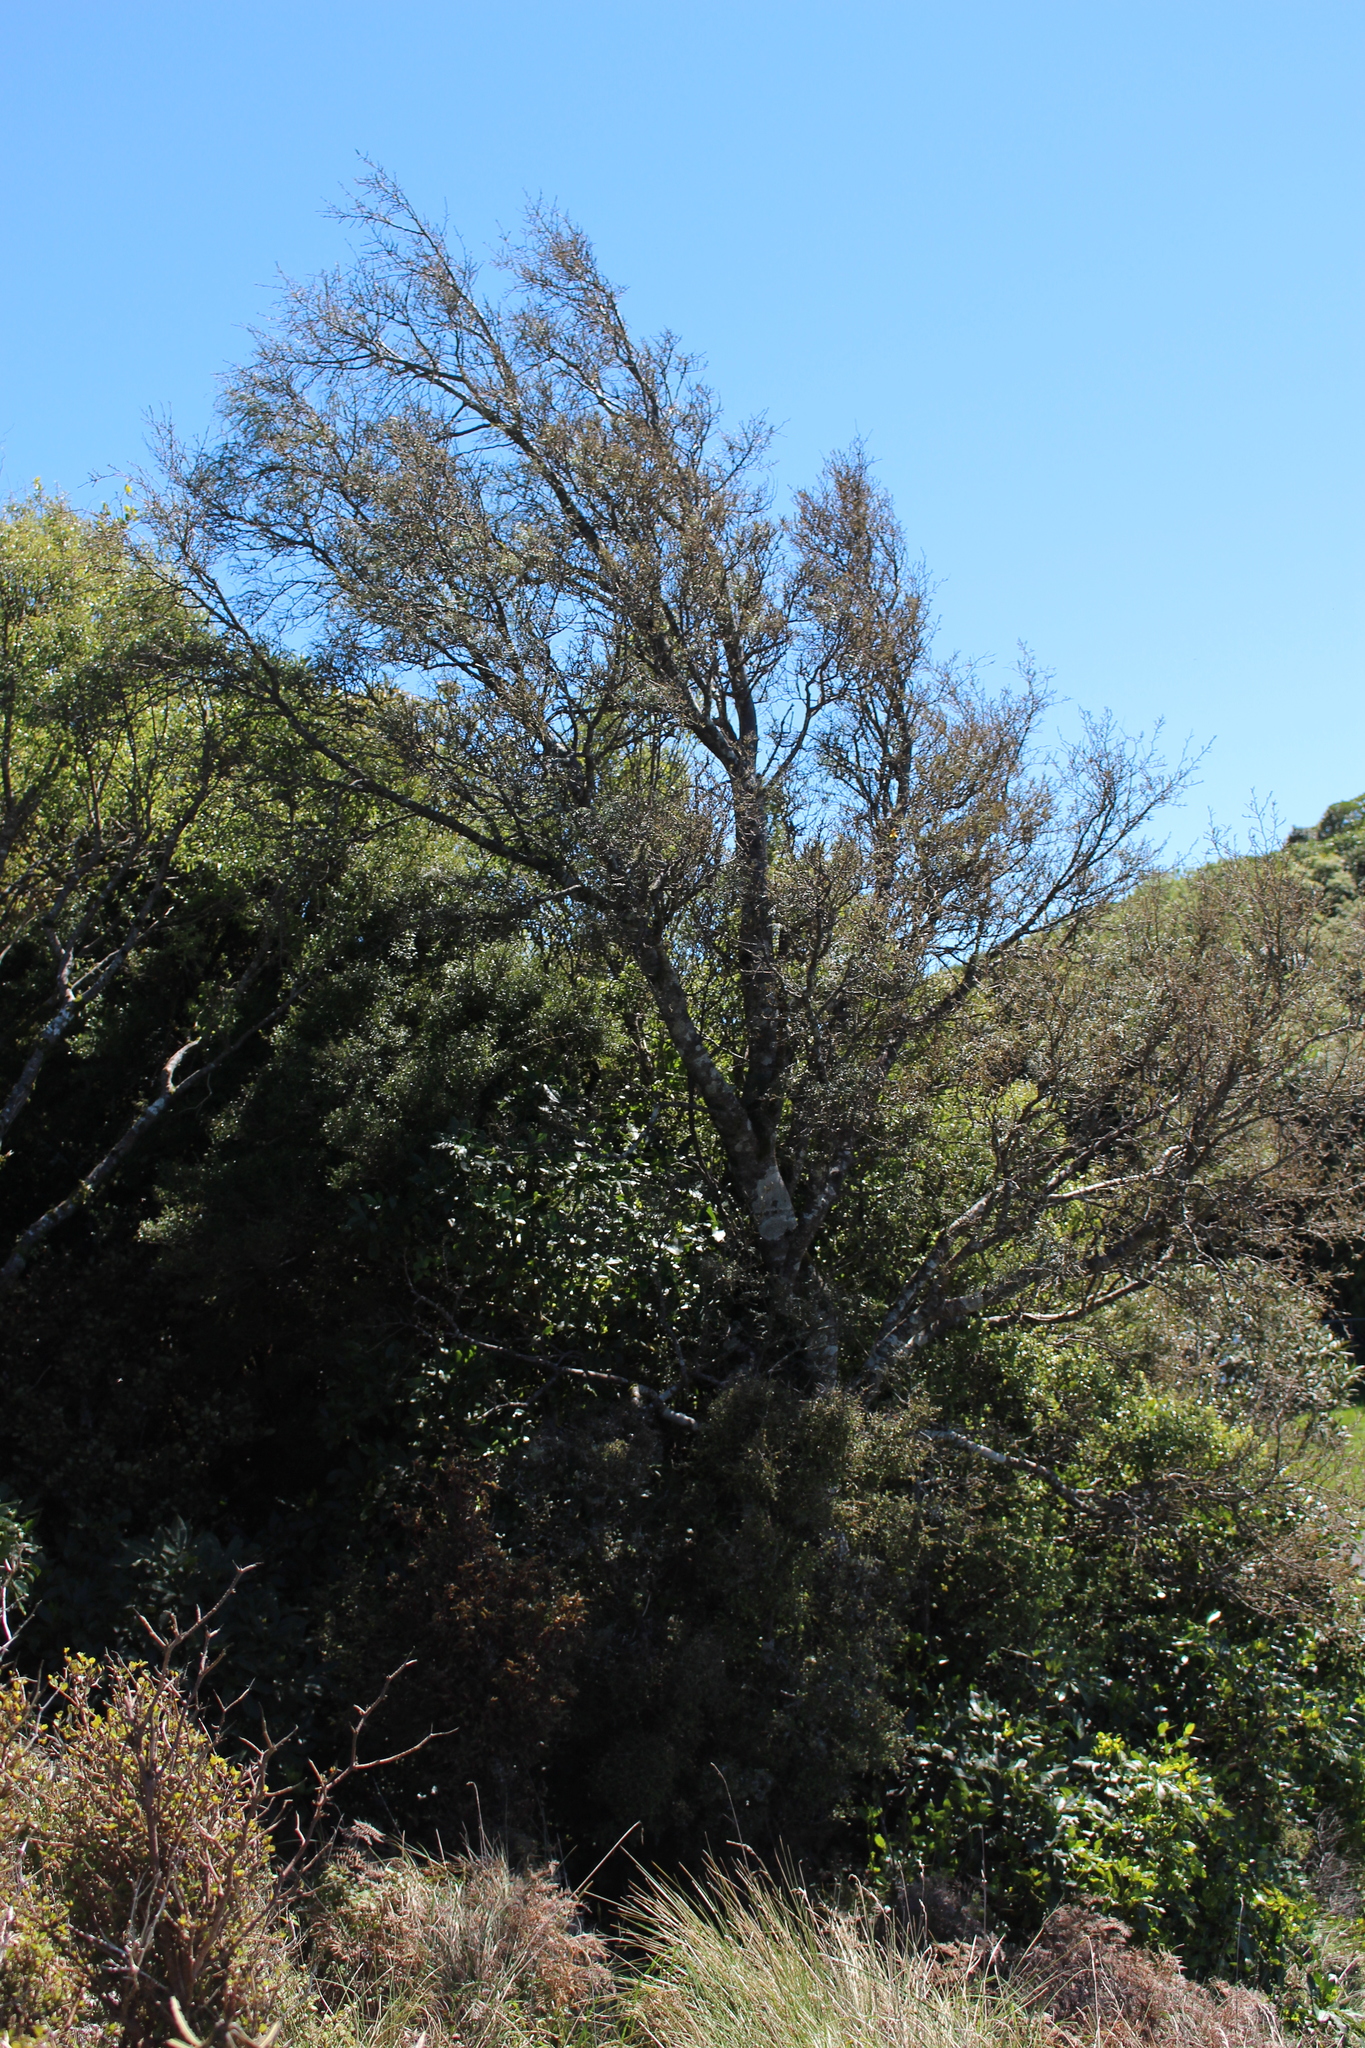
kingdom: Plantae
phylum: Tracheophyta
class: Magnoliopsida
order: Fabales
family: Fabaceae
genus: Sophora
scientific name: Sophora microphylla
